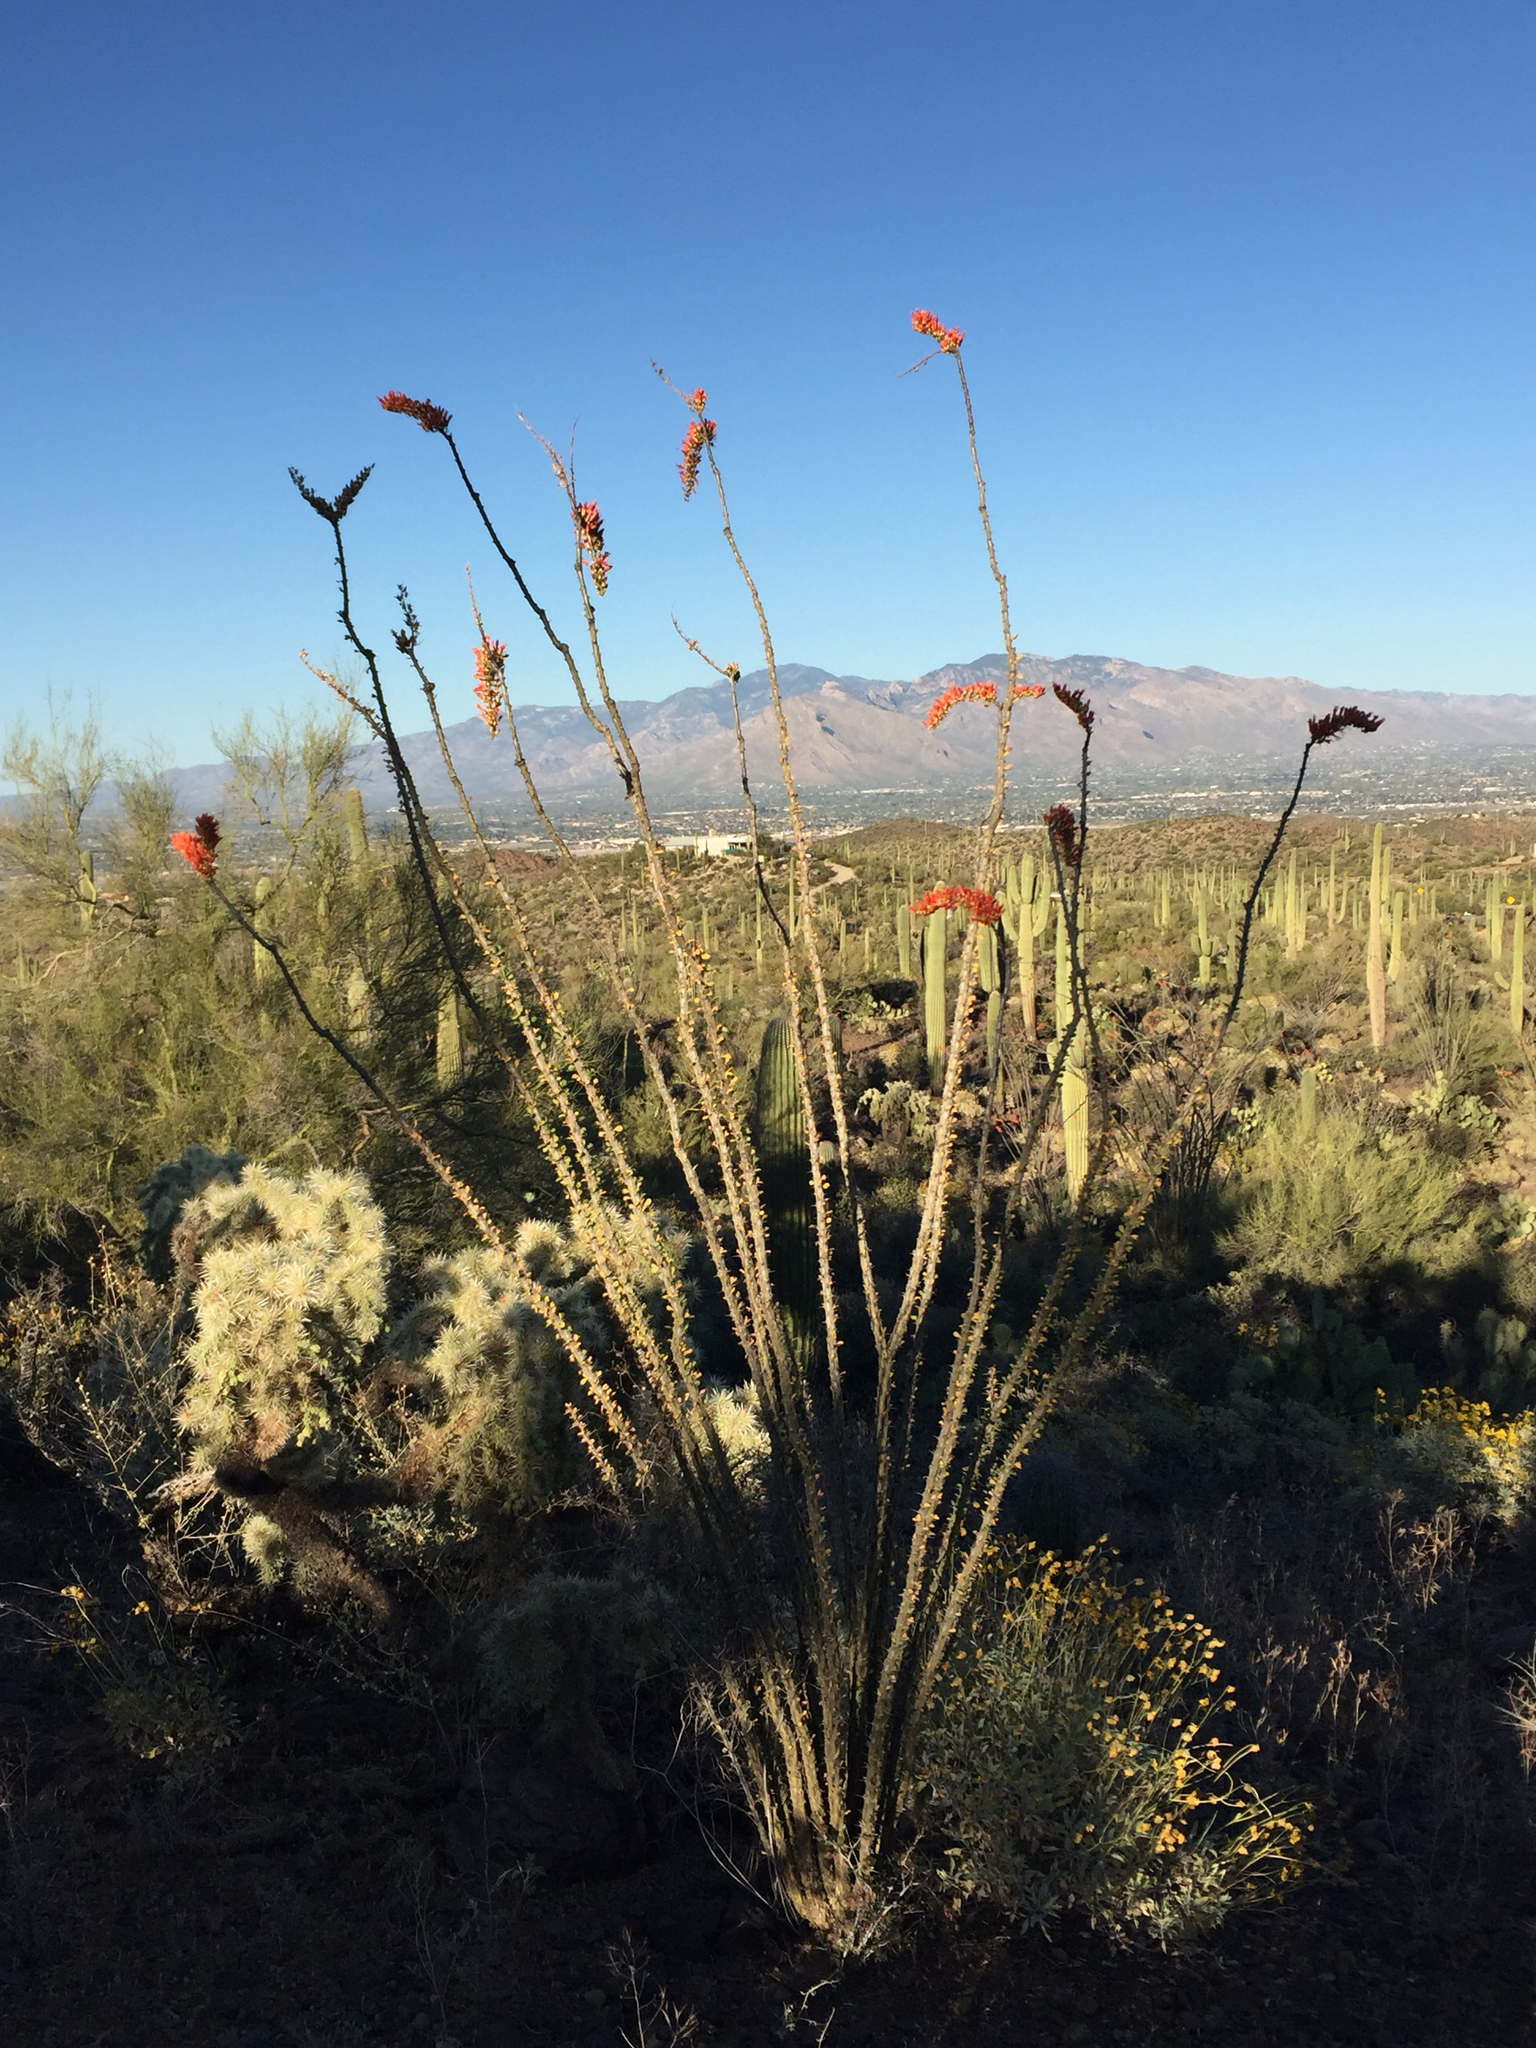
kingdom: Plantae
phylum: Tracheophyta
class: Magnoliopsida
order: Ericales
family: Fouquieriaceae
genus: Fouquieria
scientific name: Fouquieria splendens
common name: Vine-cactus
